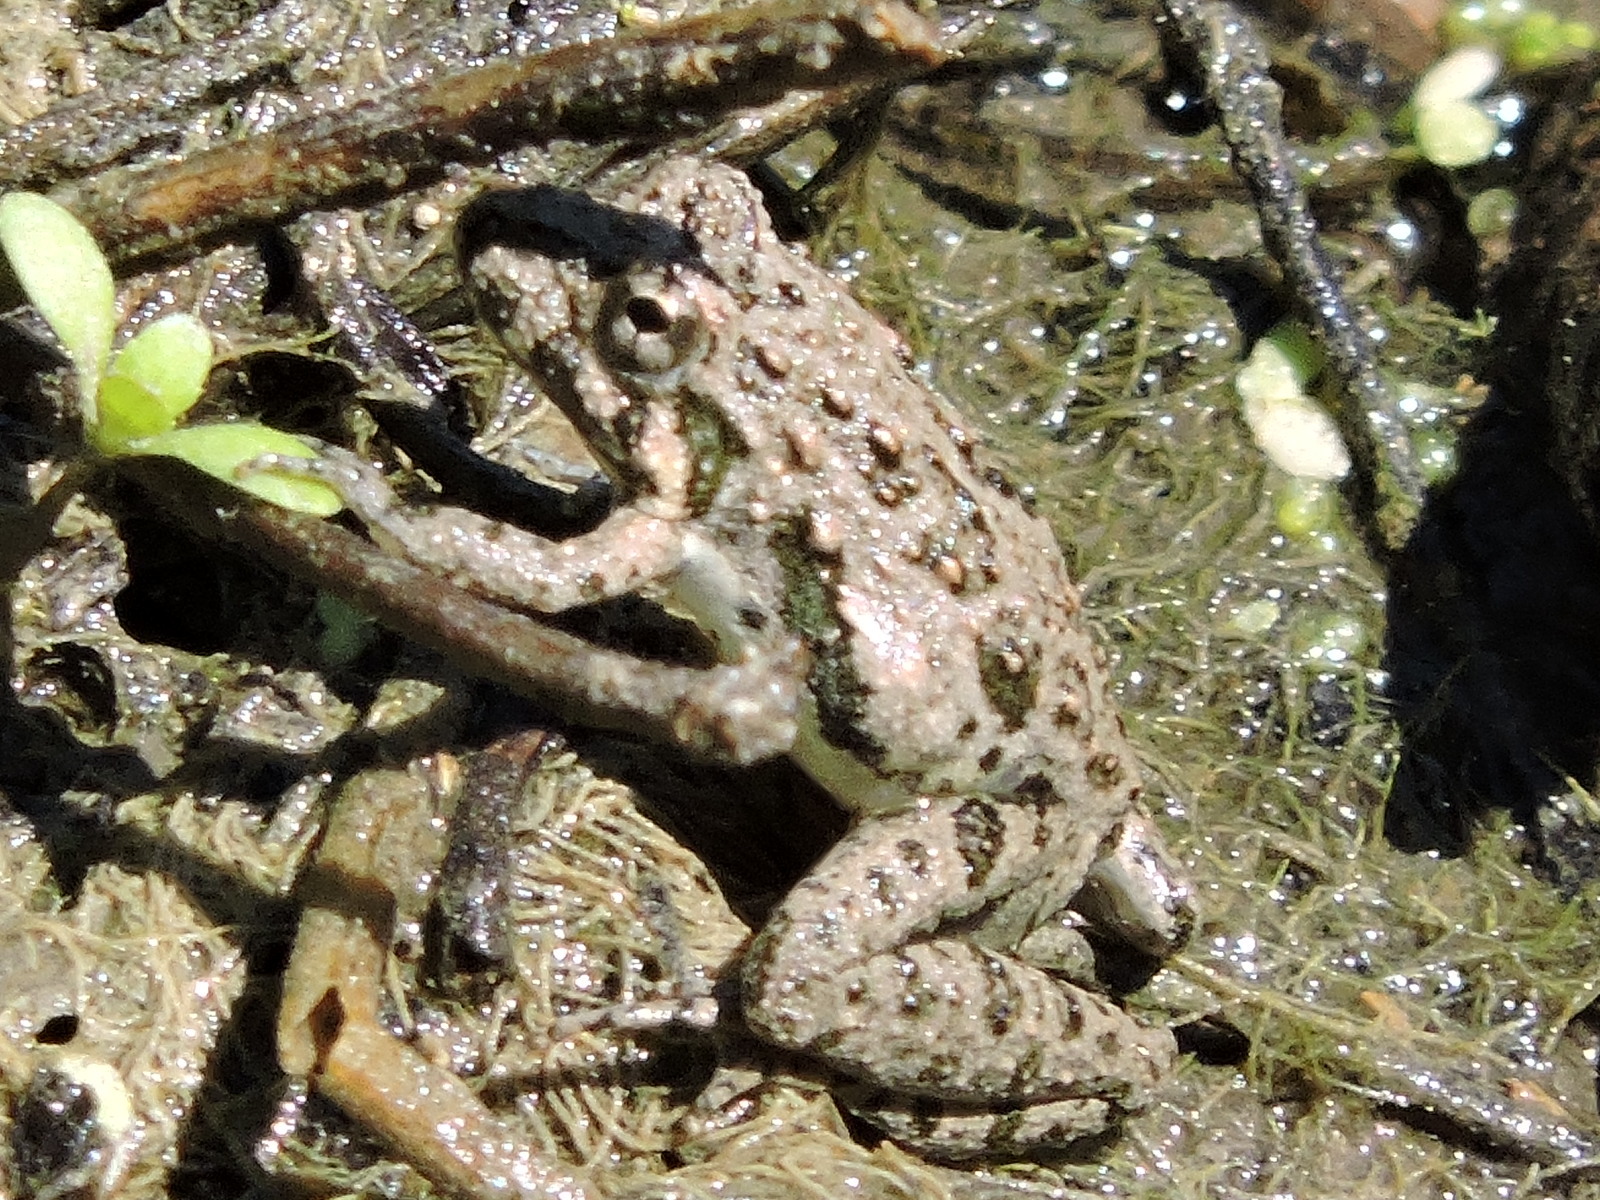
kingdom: Animalia
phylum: Chordata
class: Amphibia
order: Anura
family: Hylidae
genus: Acris
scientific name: Acris blanchardi
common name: Blanchard's cricket frog
